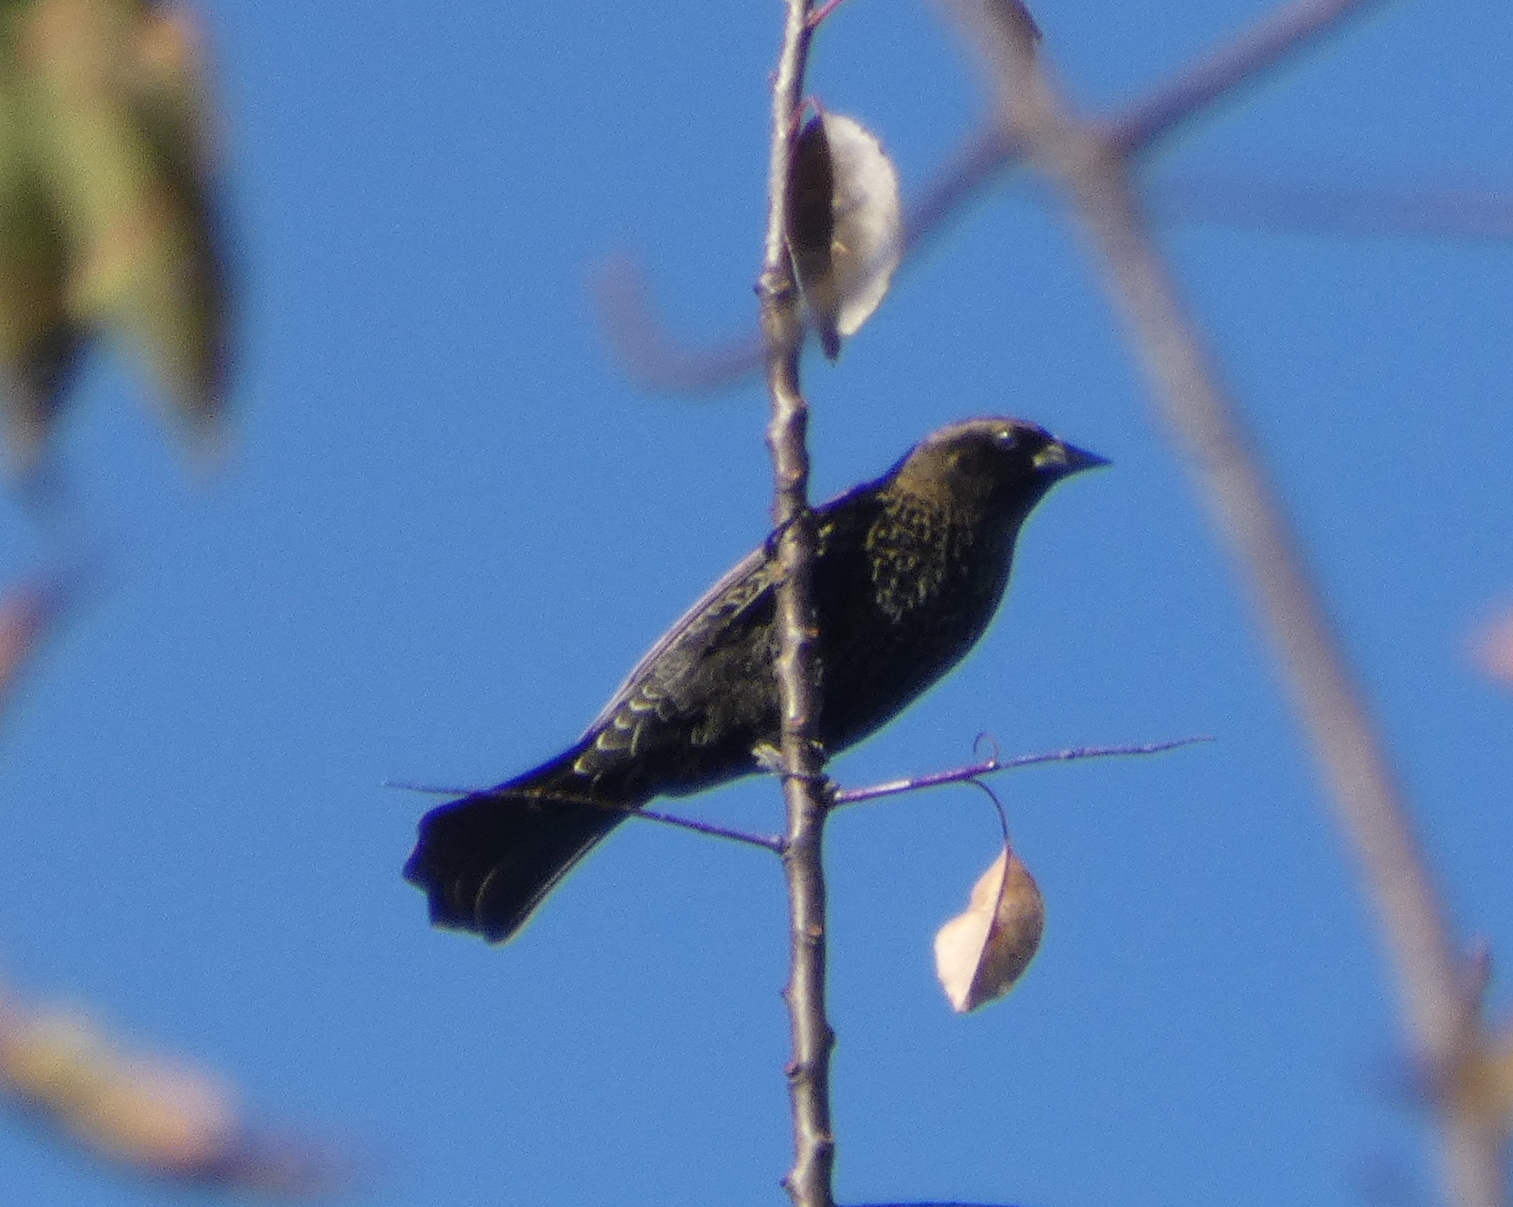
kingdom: Animalia
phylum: Chordata
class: Aves
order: Passeriformes
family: Icteridae
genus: Agelaius
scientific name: Agelaius phoeniceus
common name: Red-winged blackbird
